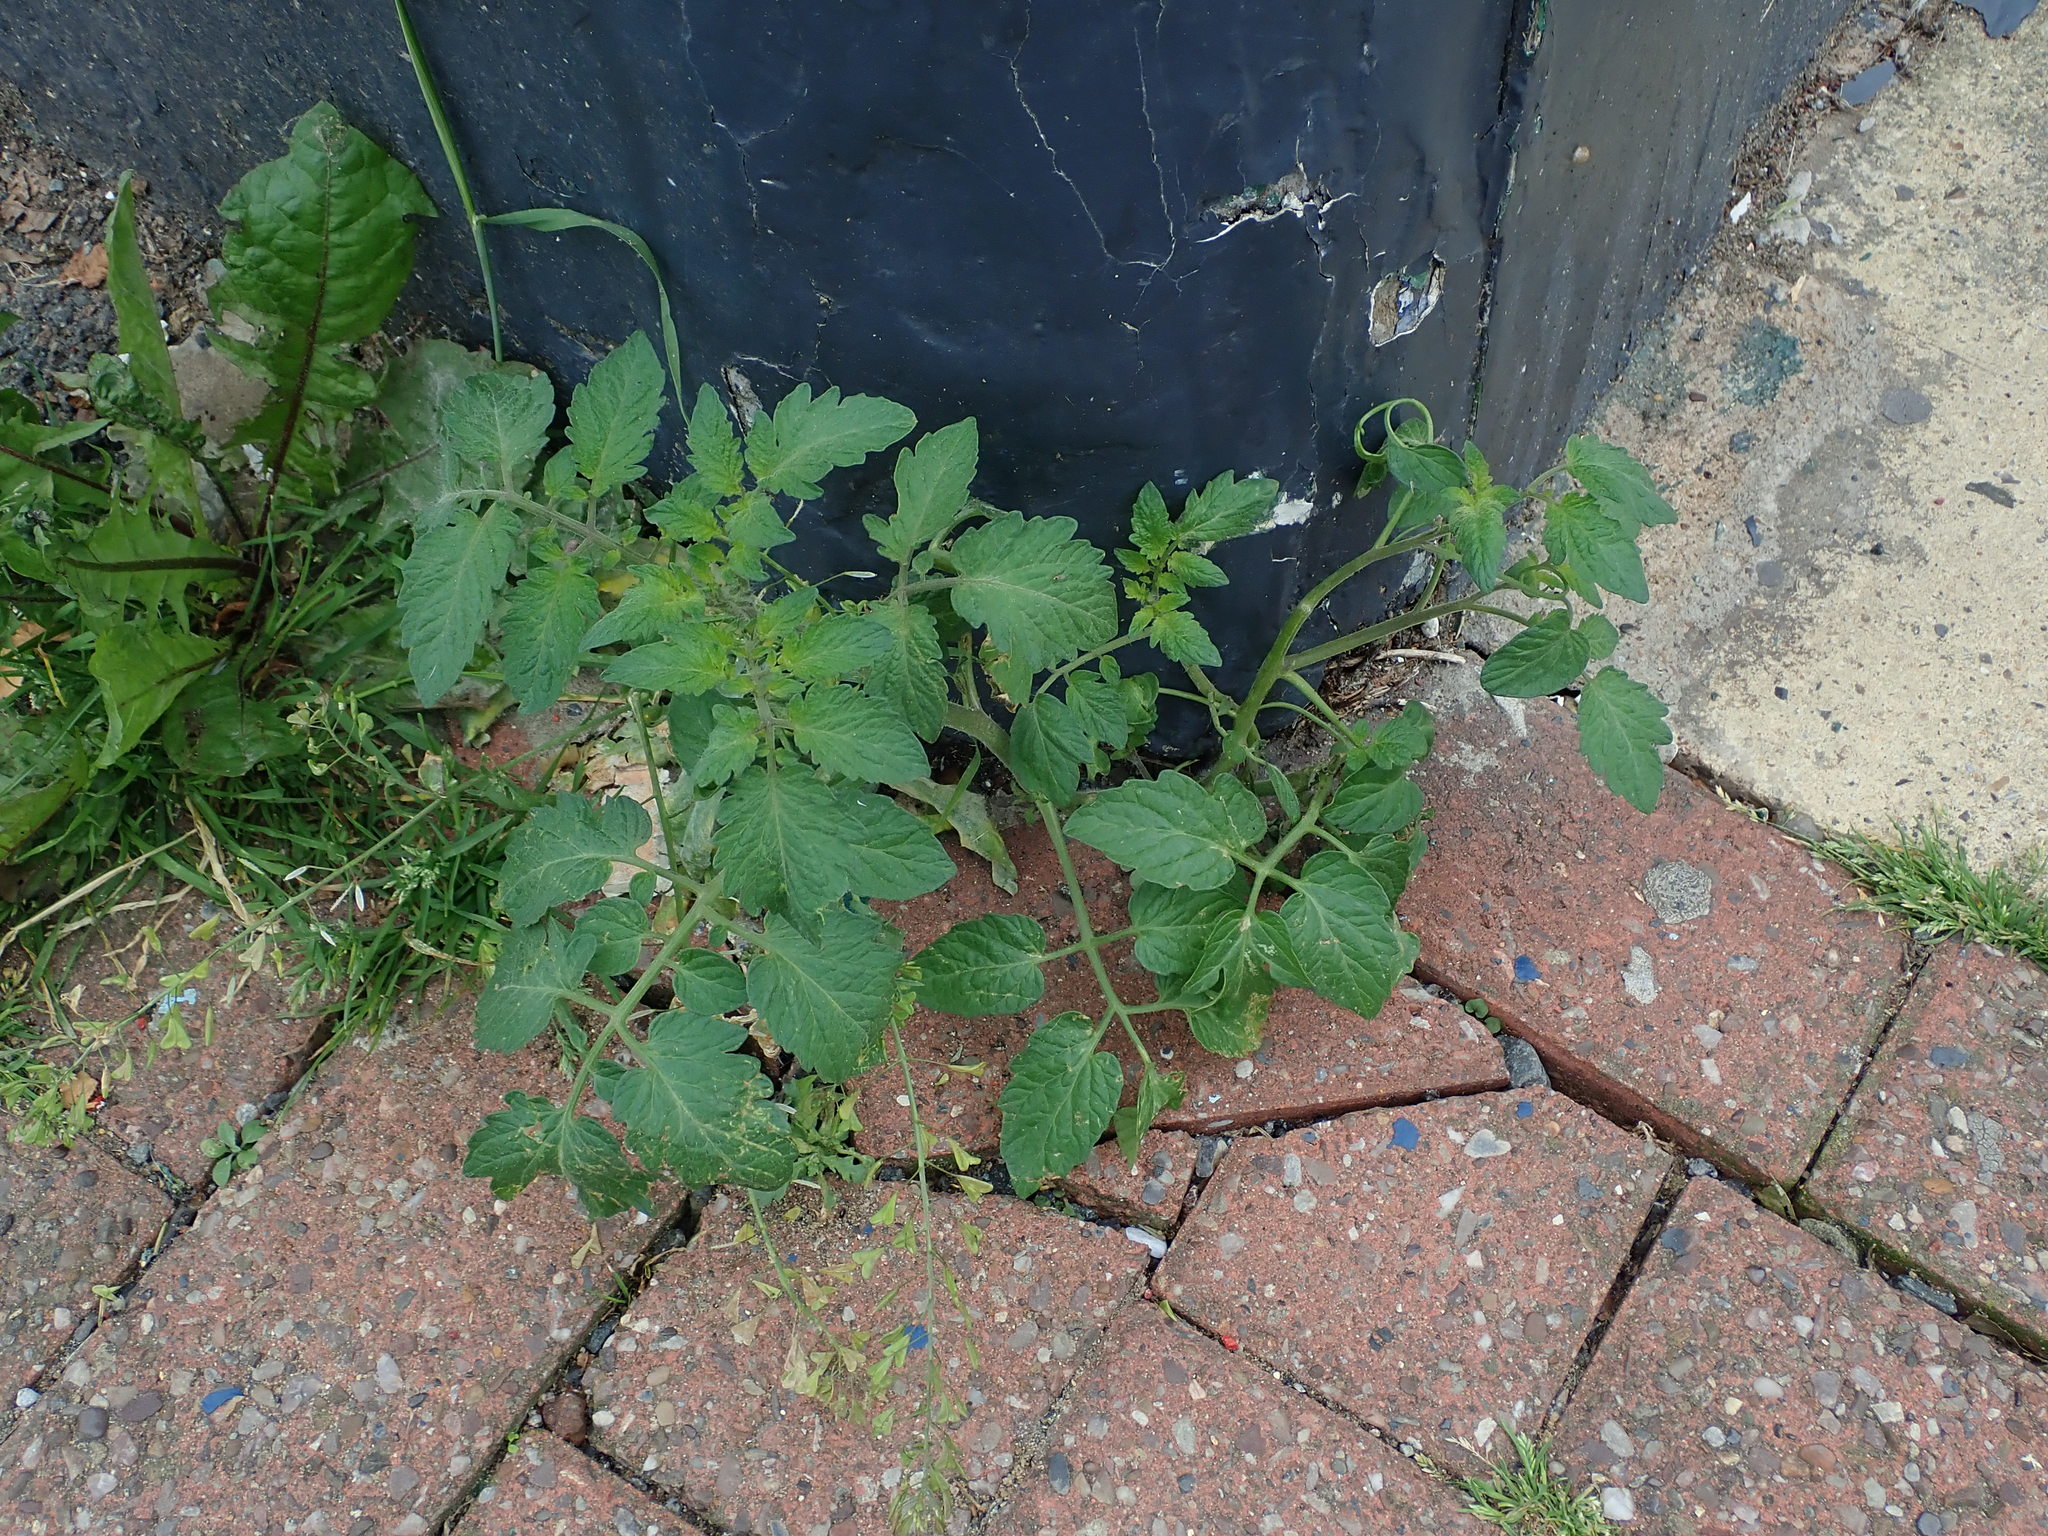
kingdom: Plantae
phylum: Tracheophyta
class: Magnoliopsida
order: Solanales
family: Solanaceae
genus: Solanum
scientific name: Solanum lycopersicum
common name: Garden tomato
